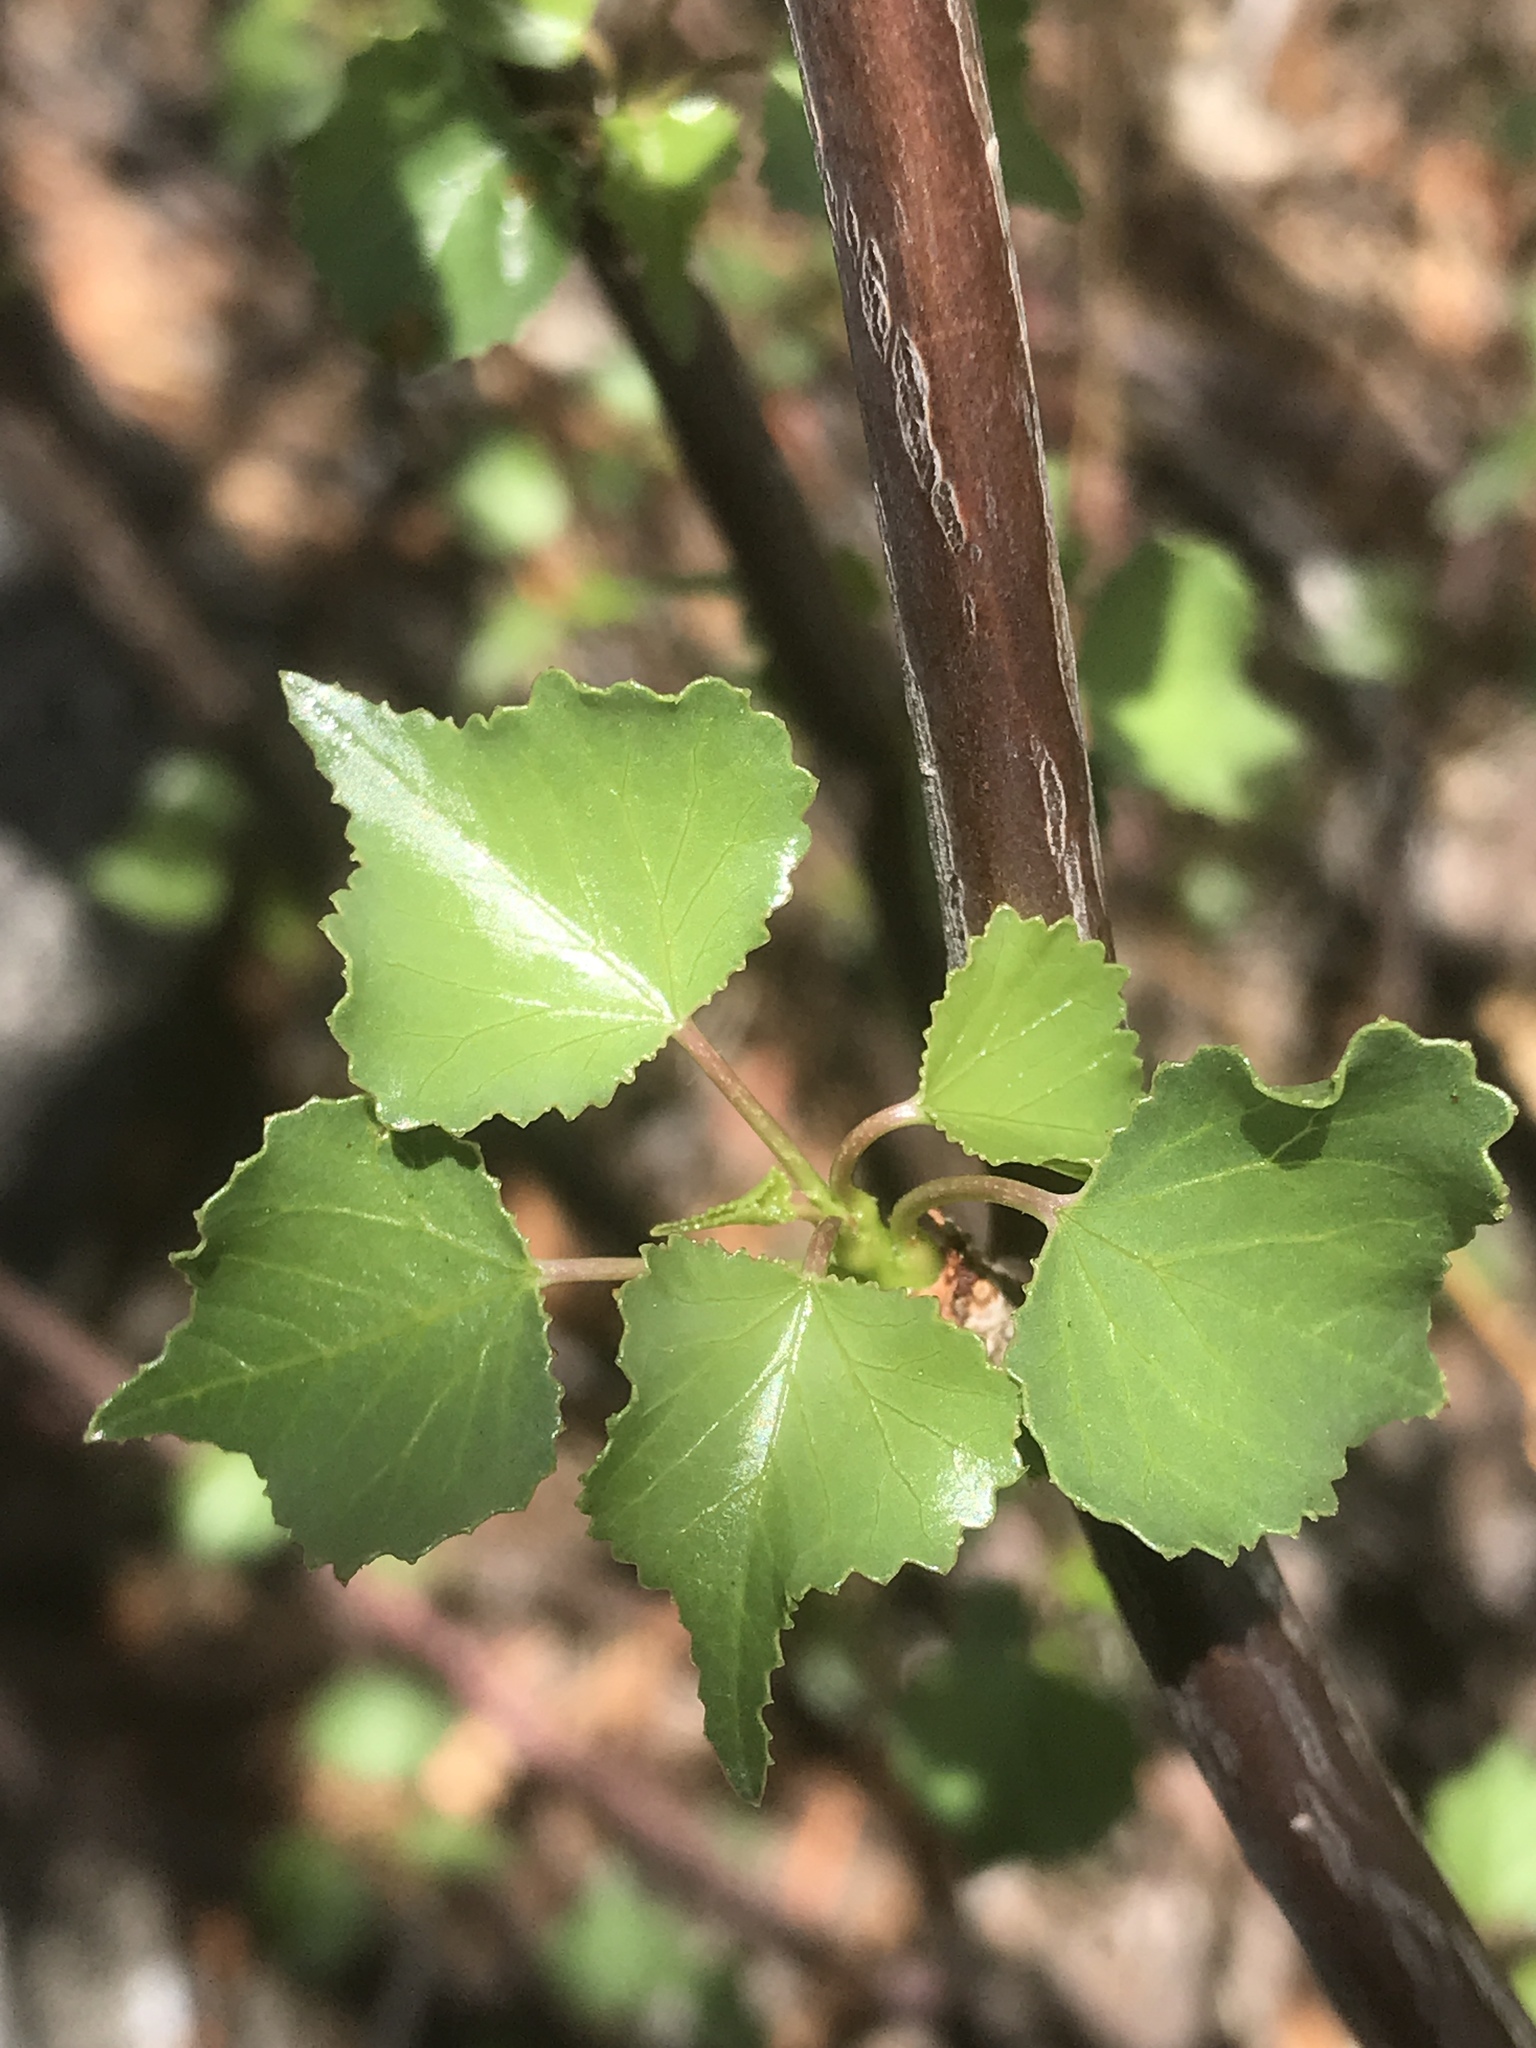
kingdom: Plantae
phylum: Tracheophyta
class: Magnoliopsida
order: Malpighiales
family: Euphorbiaceae
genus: Jatropha
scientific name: Jatropha cardiophylla
